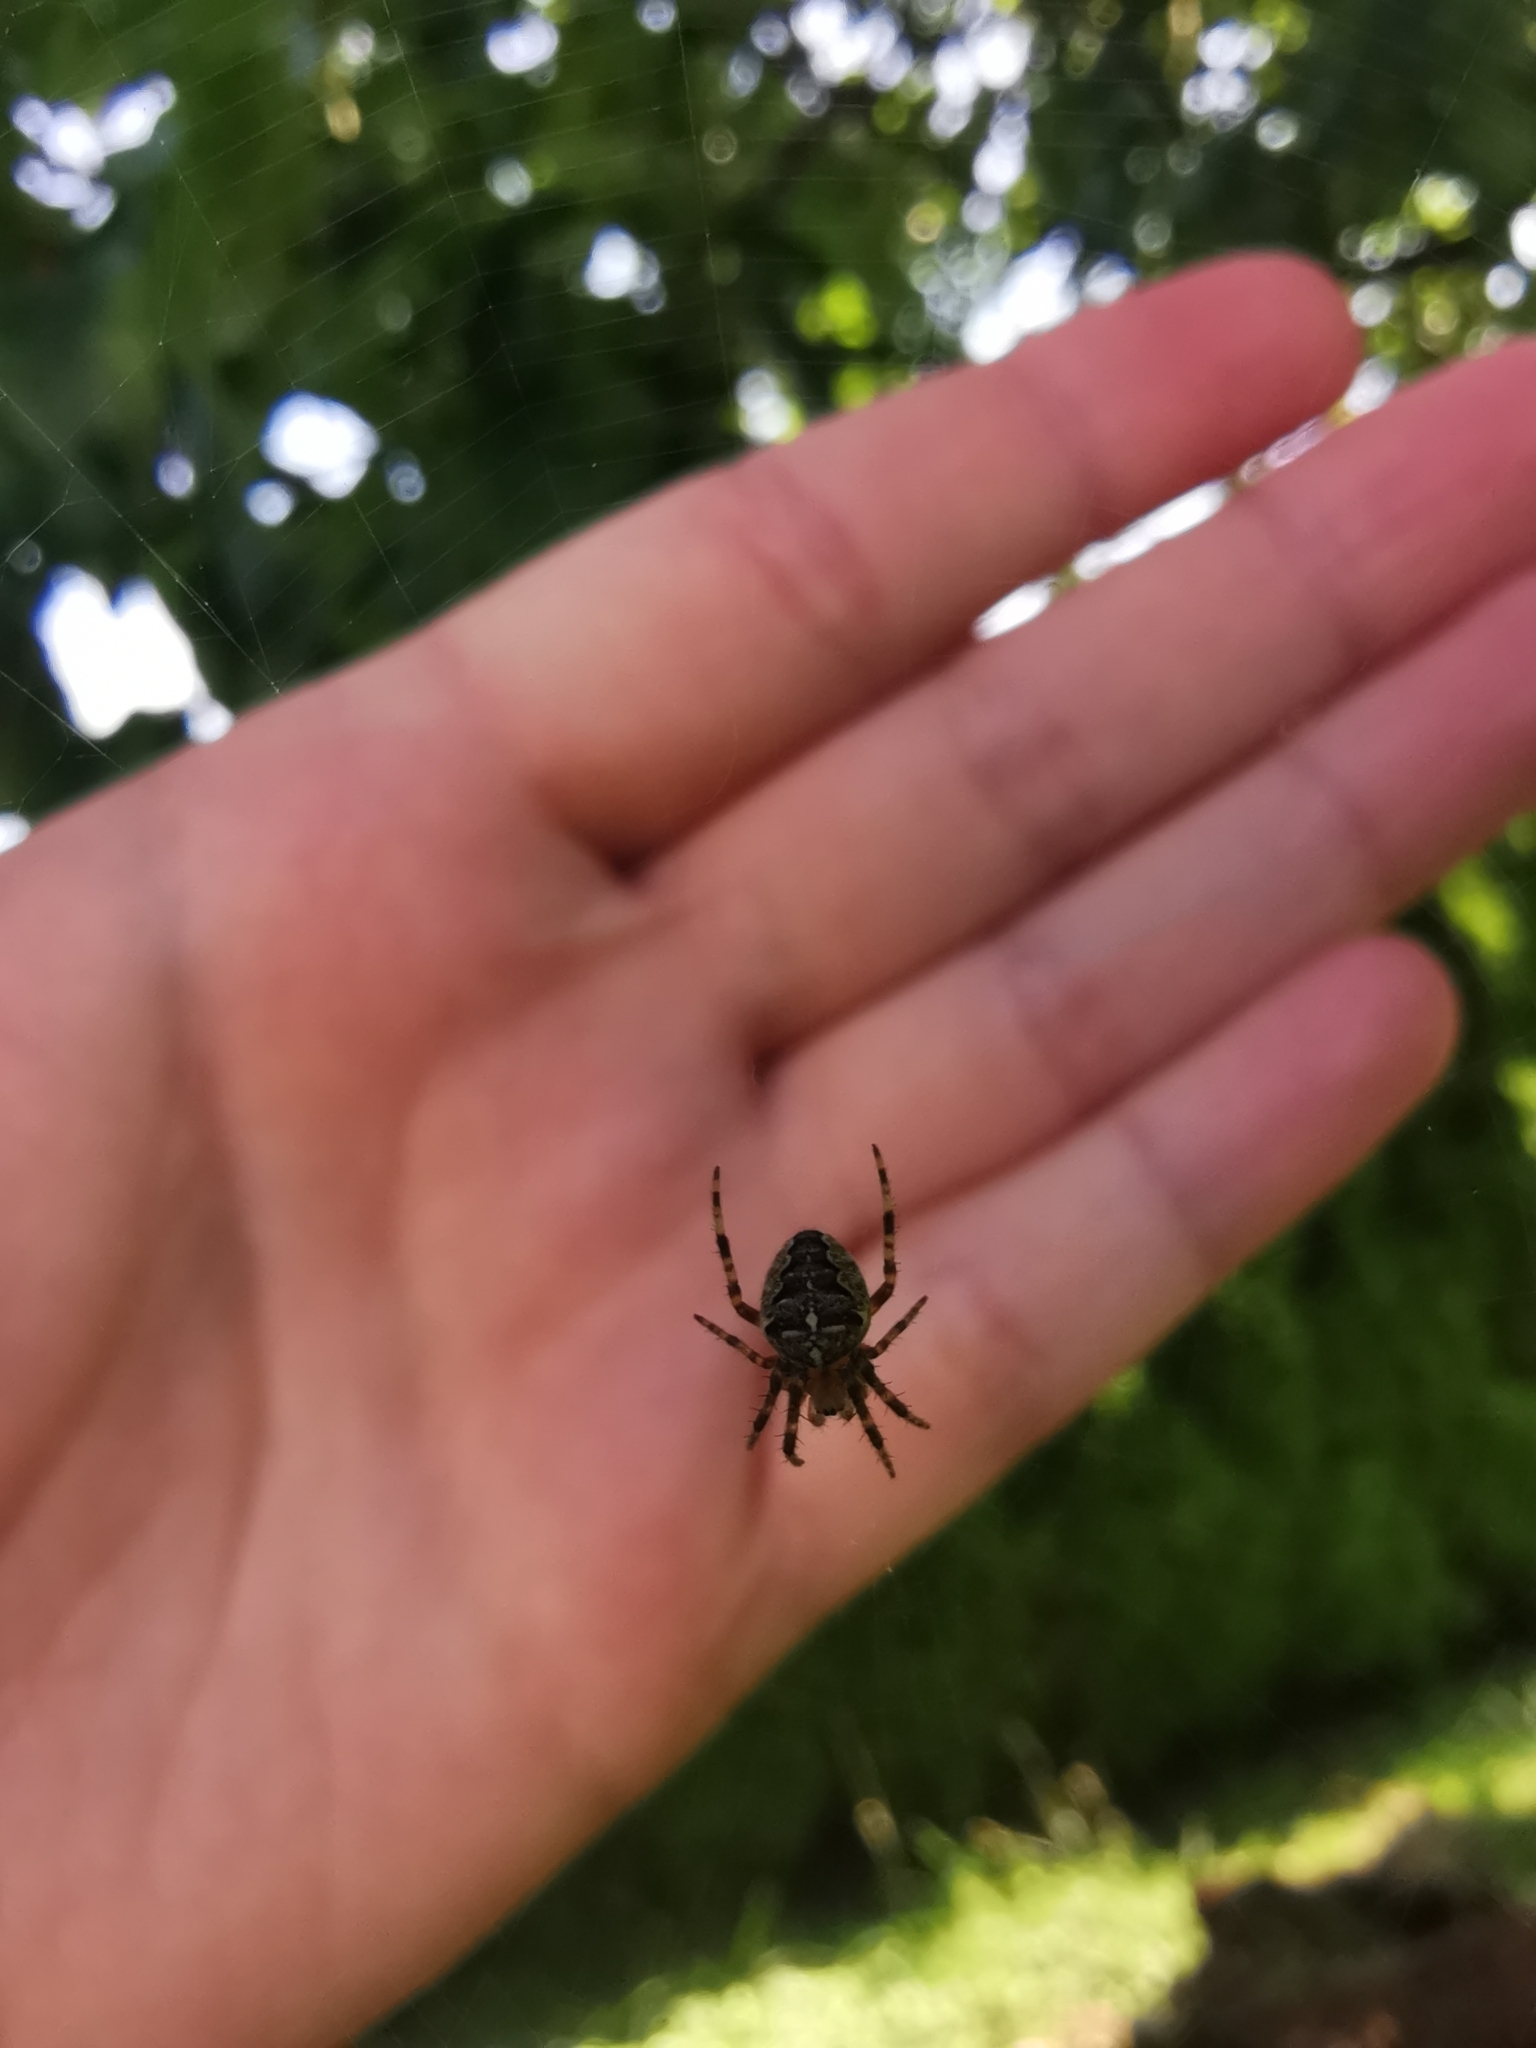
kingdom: Animalia
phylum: Arthropoda
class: Arachnida
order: Araneae
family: Araneidae
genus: Araneus
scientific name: Araneus diadematus
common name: Cross orbweaver
